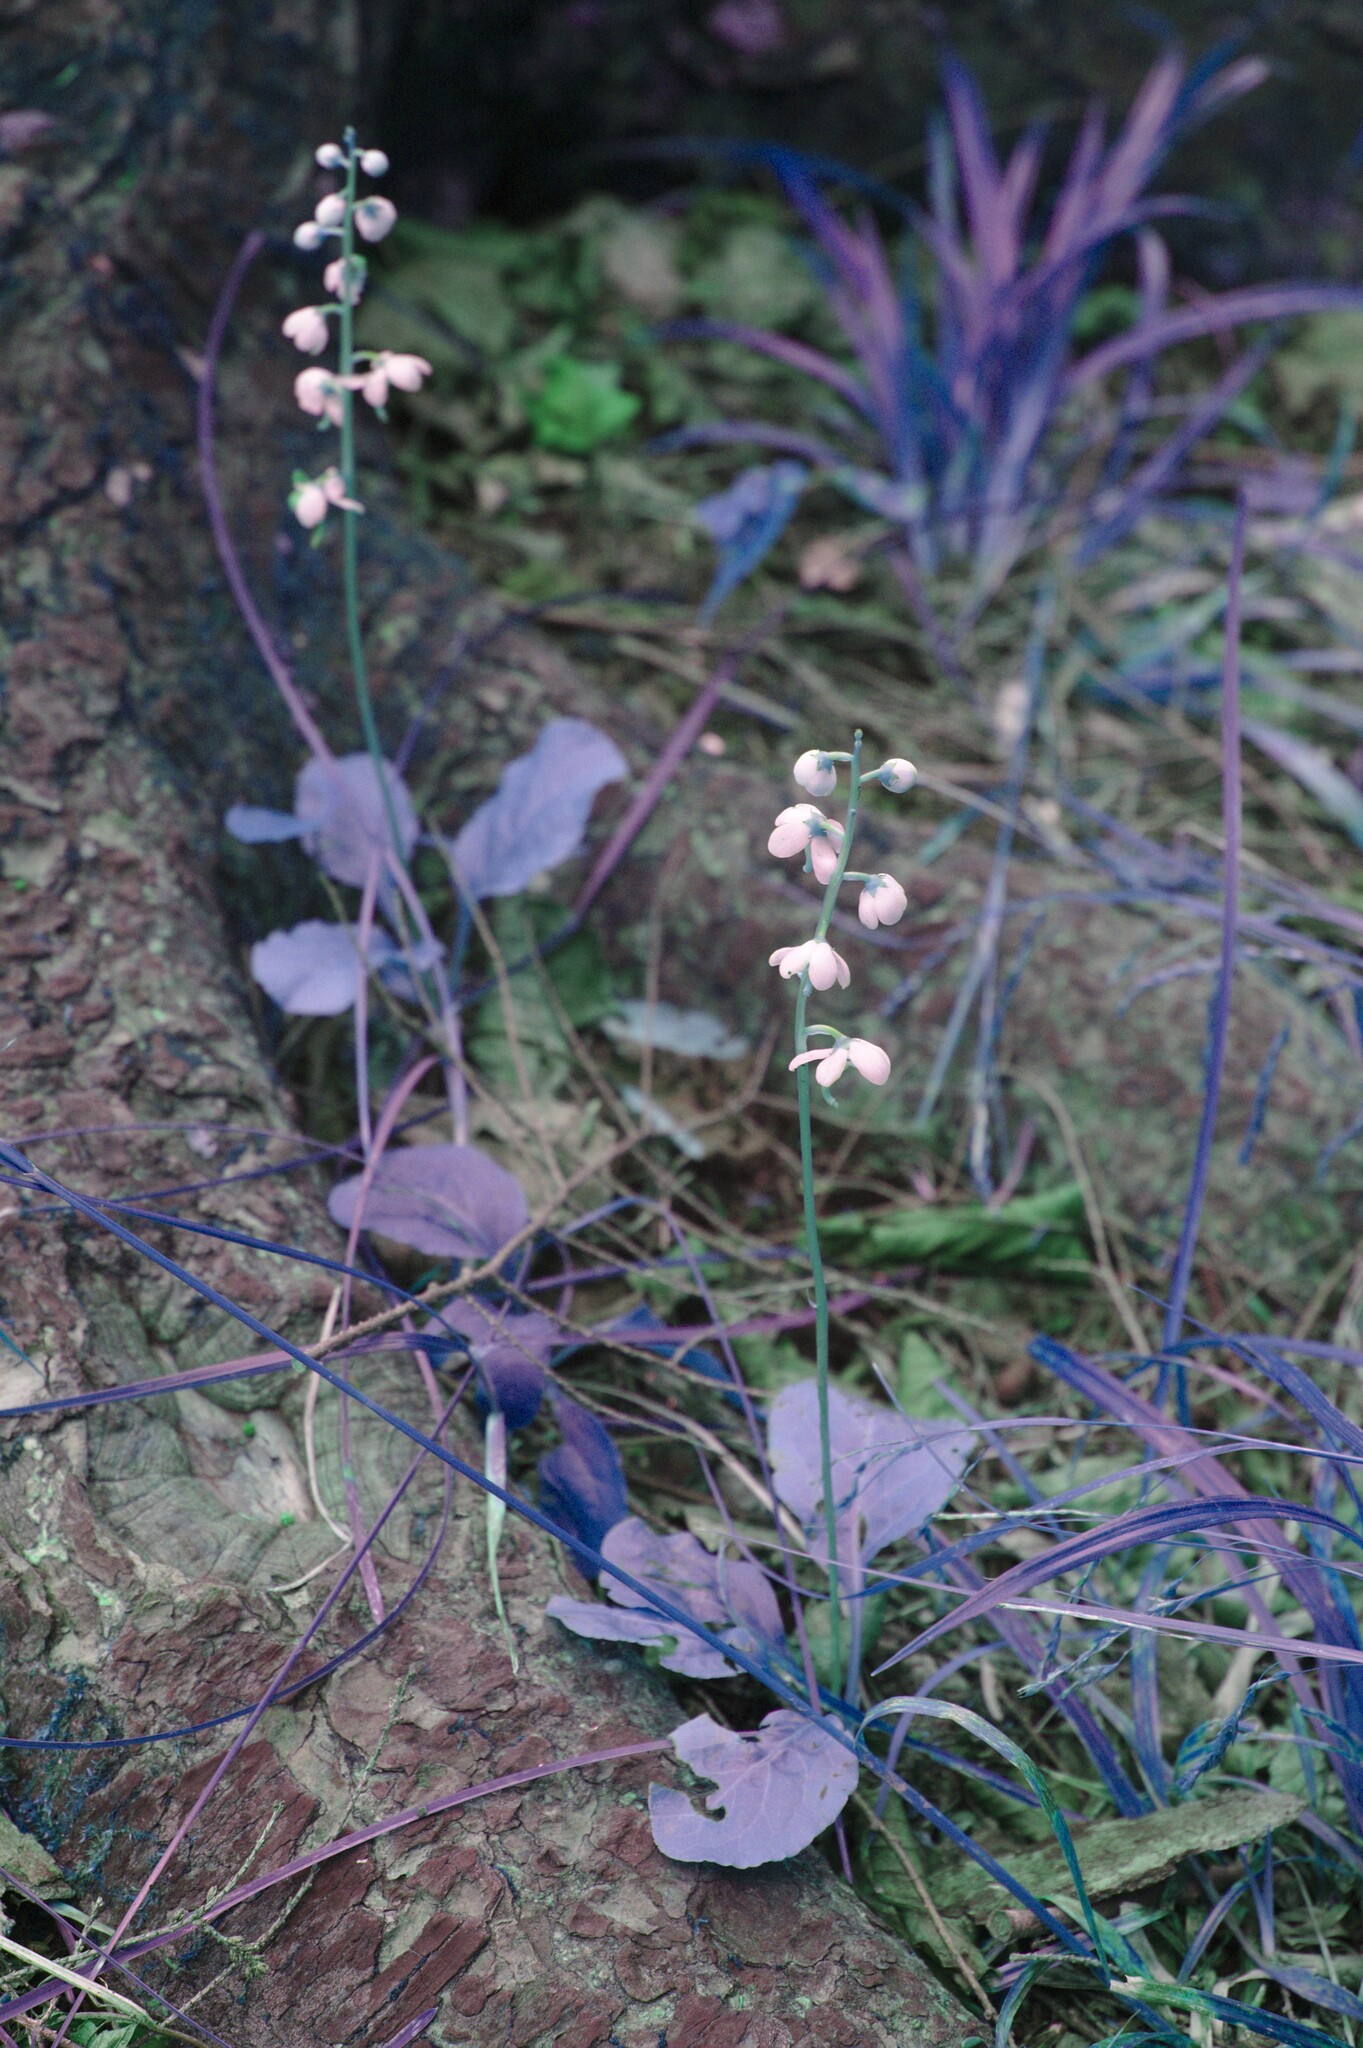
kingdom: Plantae
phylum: Tracheophyta
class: Magnoliopsida
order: Ericales
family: Ericaceae
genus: Pyrola
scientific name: Pyrola elliptica
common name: Shinleaf
